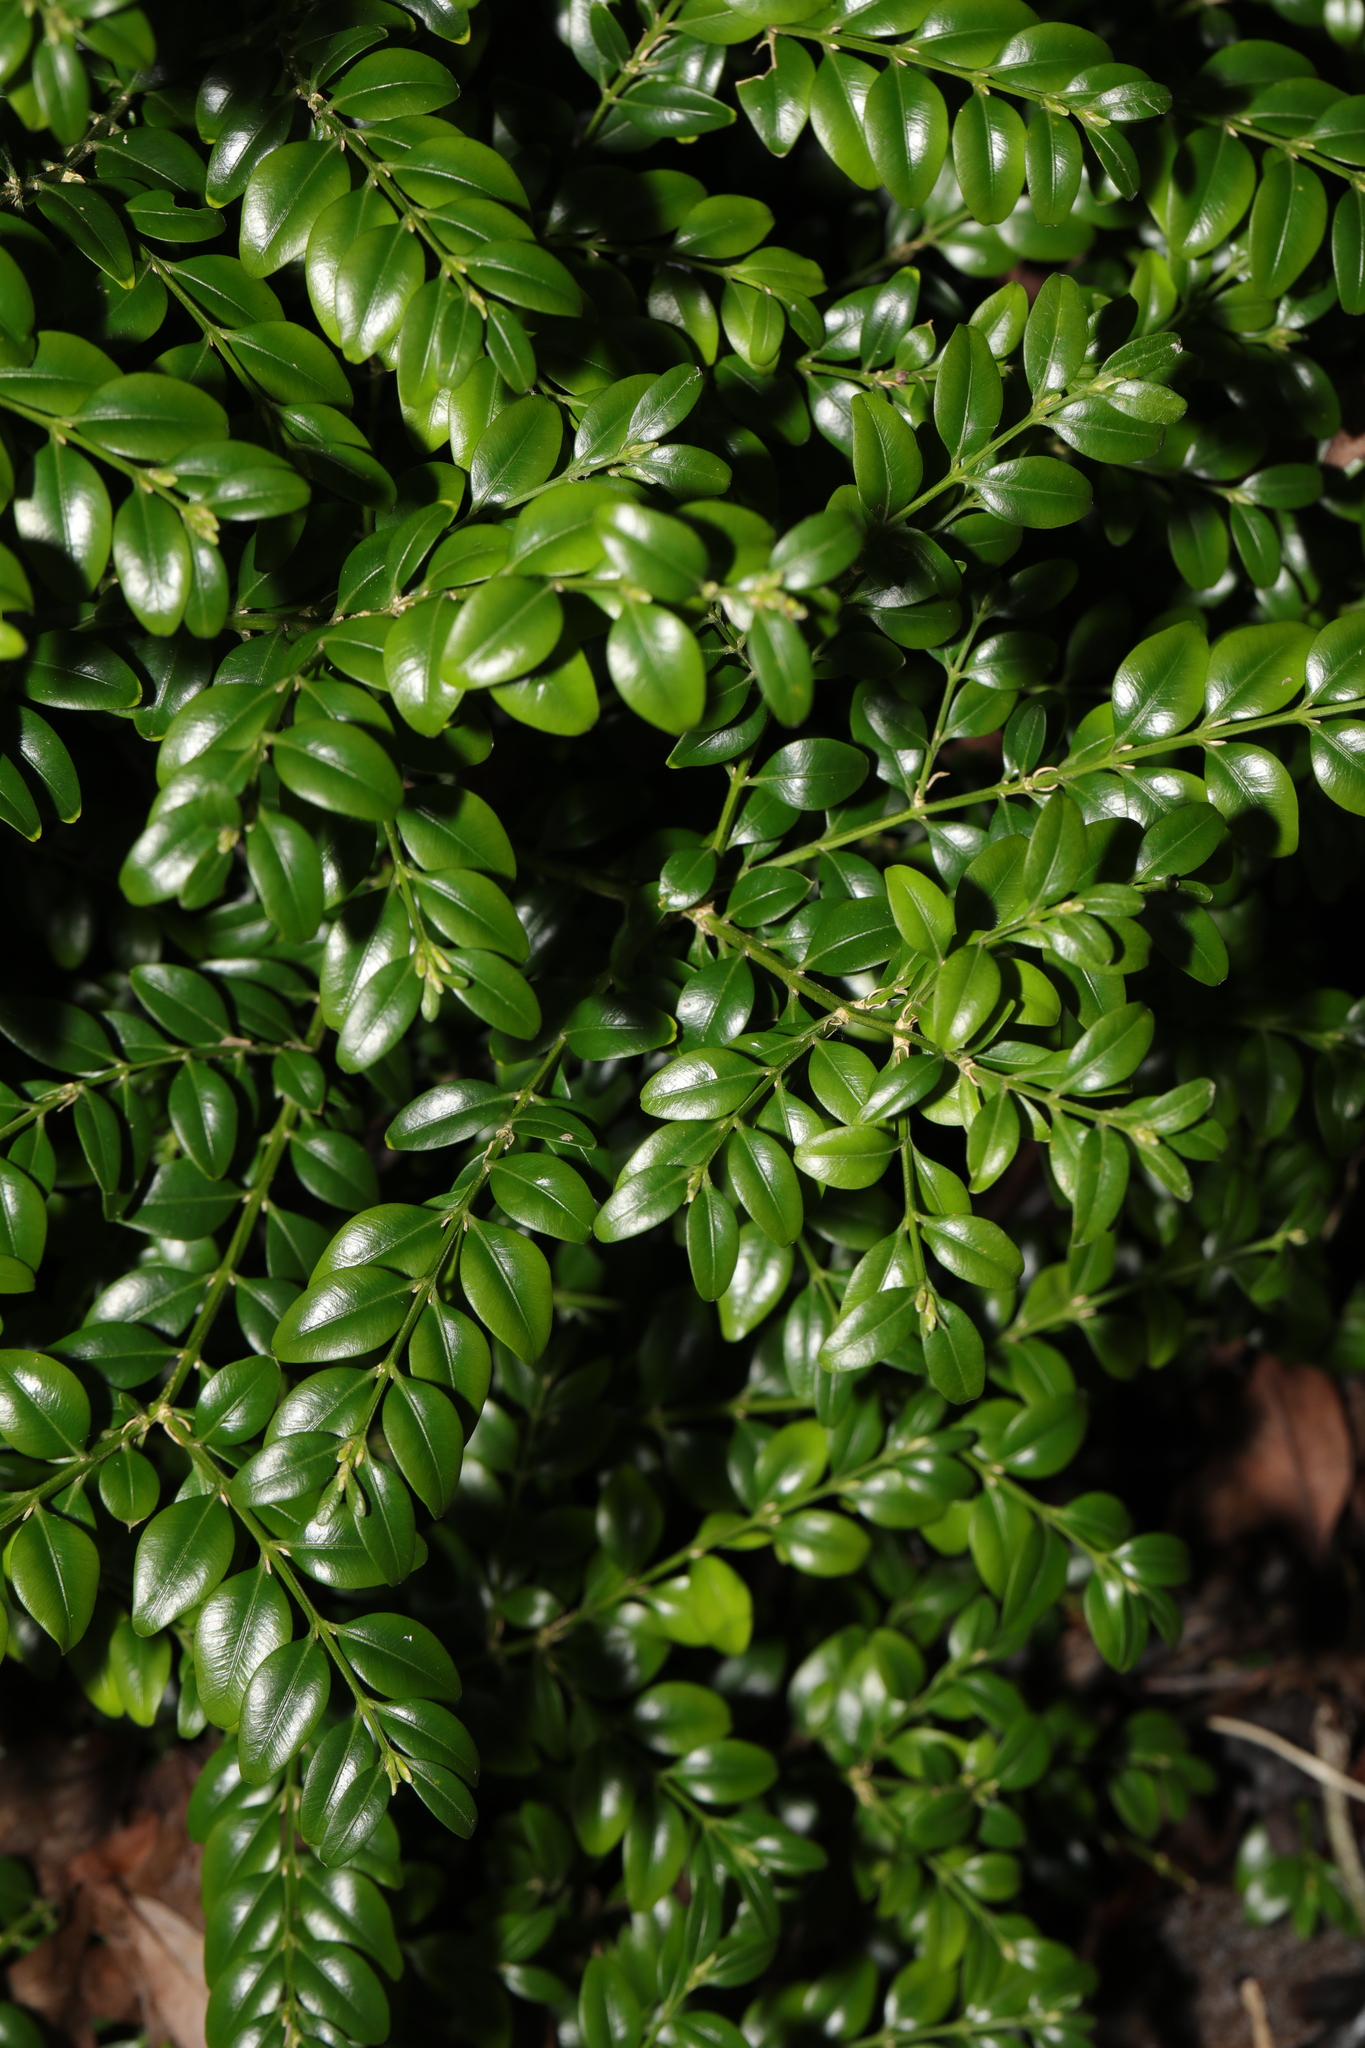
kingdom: Plantae
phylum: Tracheophyta
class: Magnoliopsida
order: Buxales
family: Buxaceae
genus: Buxus
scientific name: Buxus sempervirens
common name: Box
